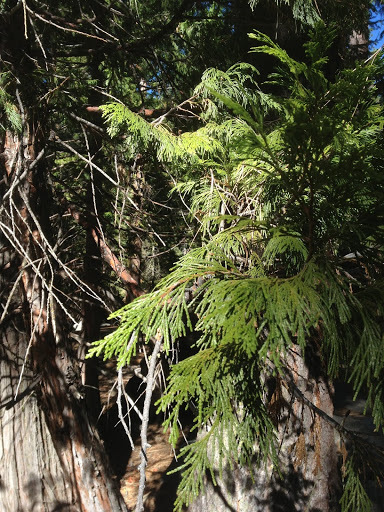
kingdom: Plantae
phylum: Tracheophyta
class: Pinopsida
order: Pinales
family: Cupressaceae
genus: Calocedrus
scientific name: Calocedrus decurrens
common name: Californian incense-cedar
